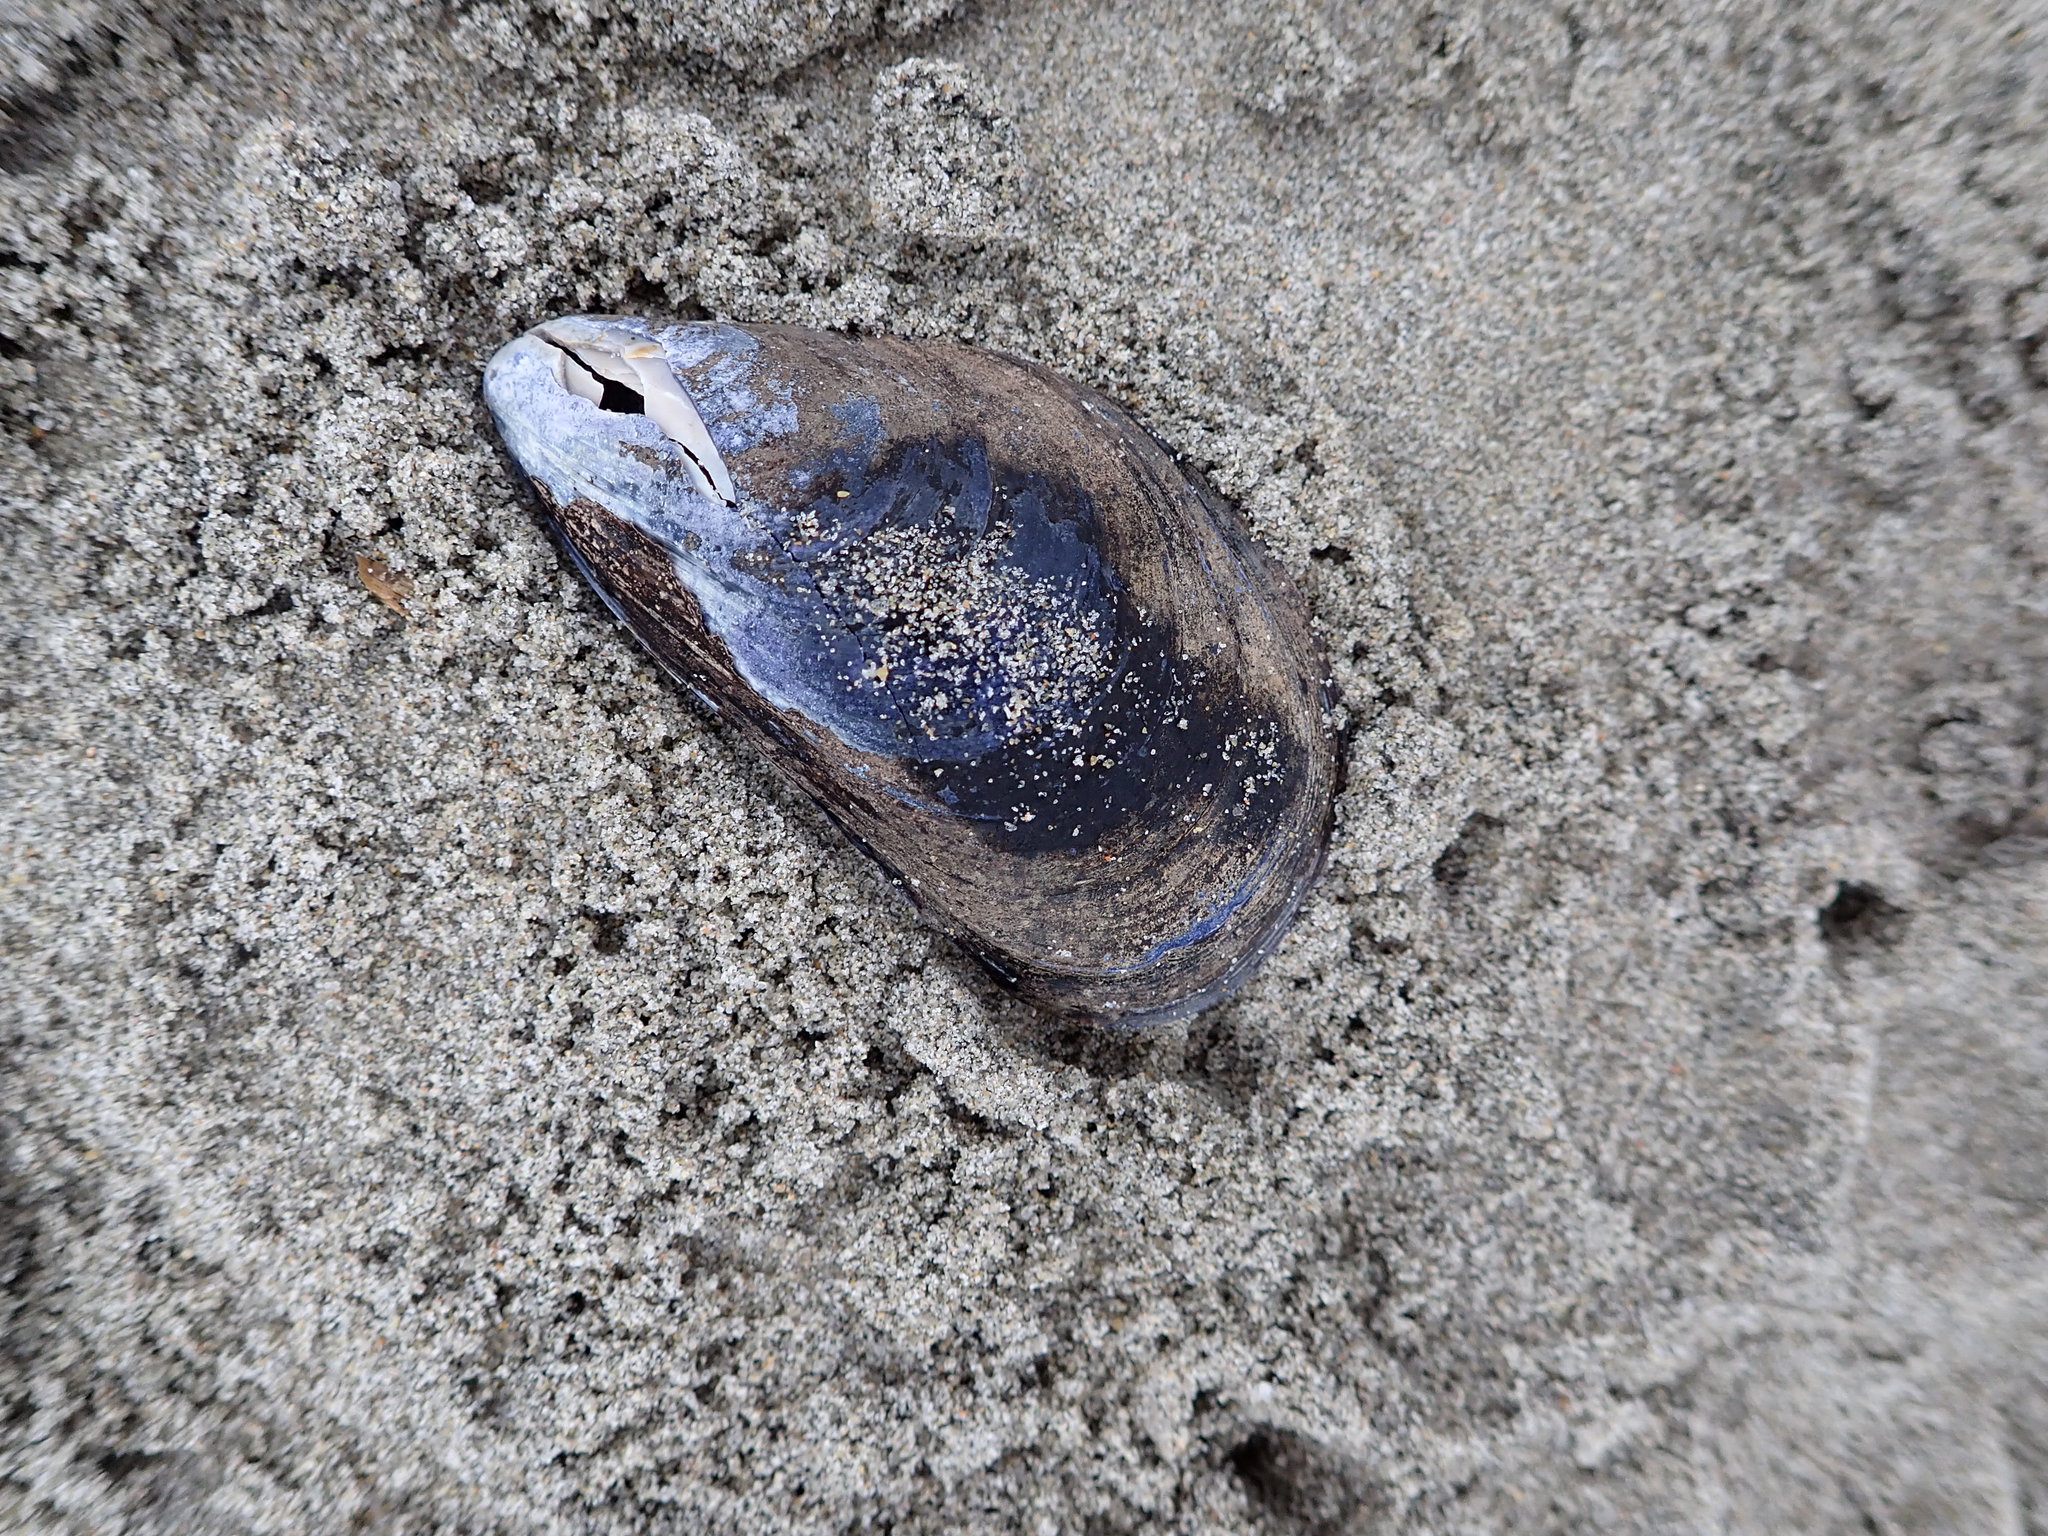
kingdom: Animalia
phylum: Mollusca
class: Bivalvia
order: Mytilida
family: Mytilidae
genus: Mytilus
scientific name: Mytilus edulis
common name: Blue mussel
